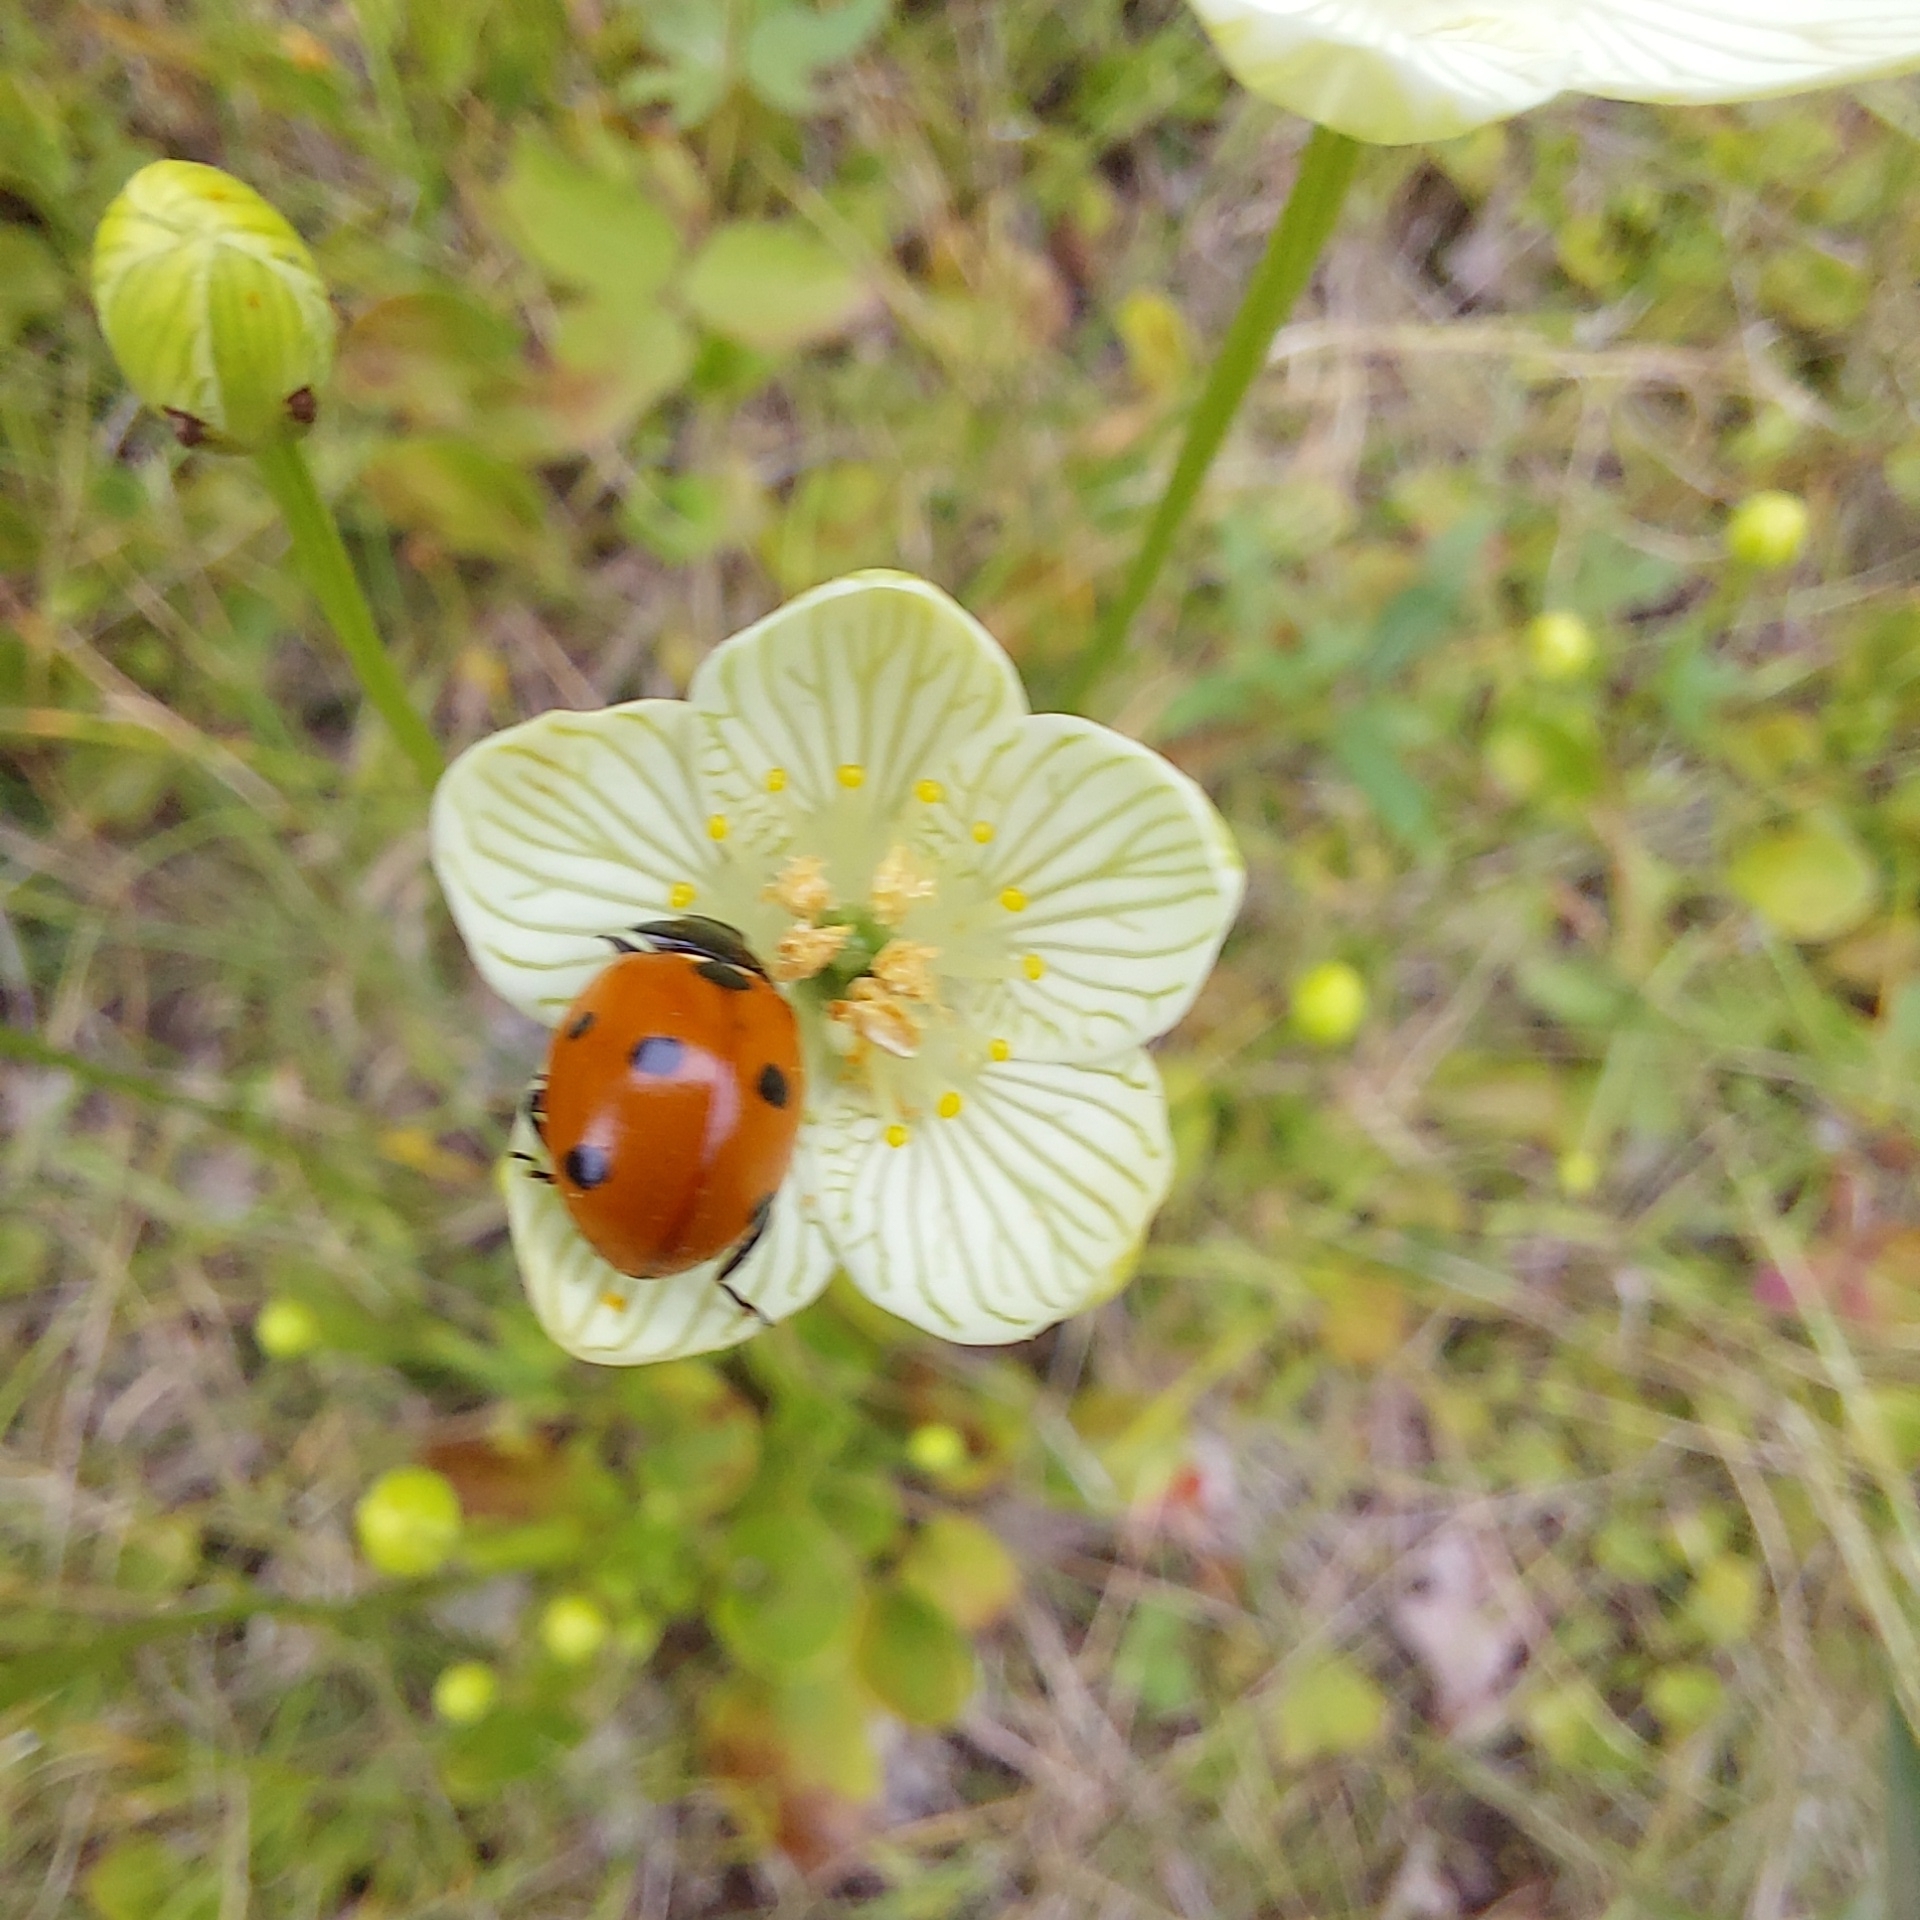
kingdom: Animalia
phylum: Arthropoda
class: Insecta
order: Coleoptera
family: Coccinellidae
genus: Coccinella
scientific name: Coccinella septempunctata
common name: Sevenspotted lady beetle
